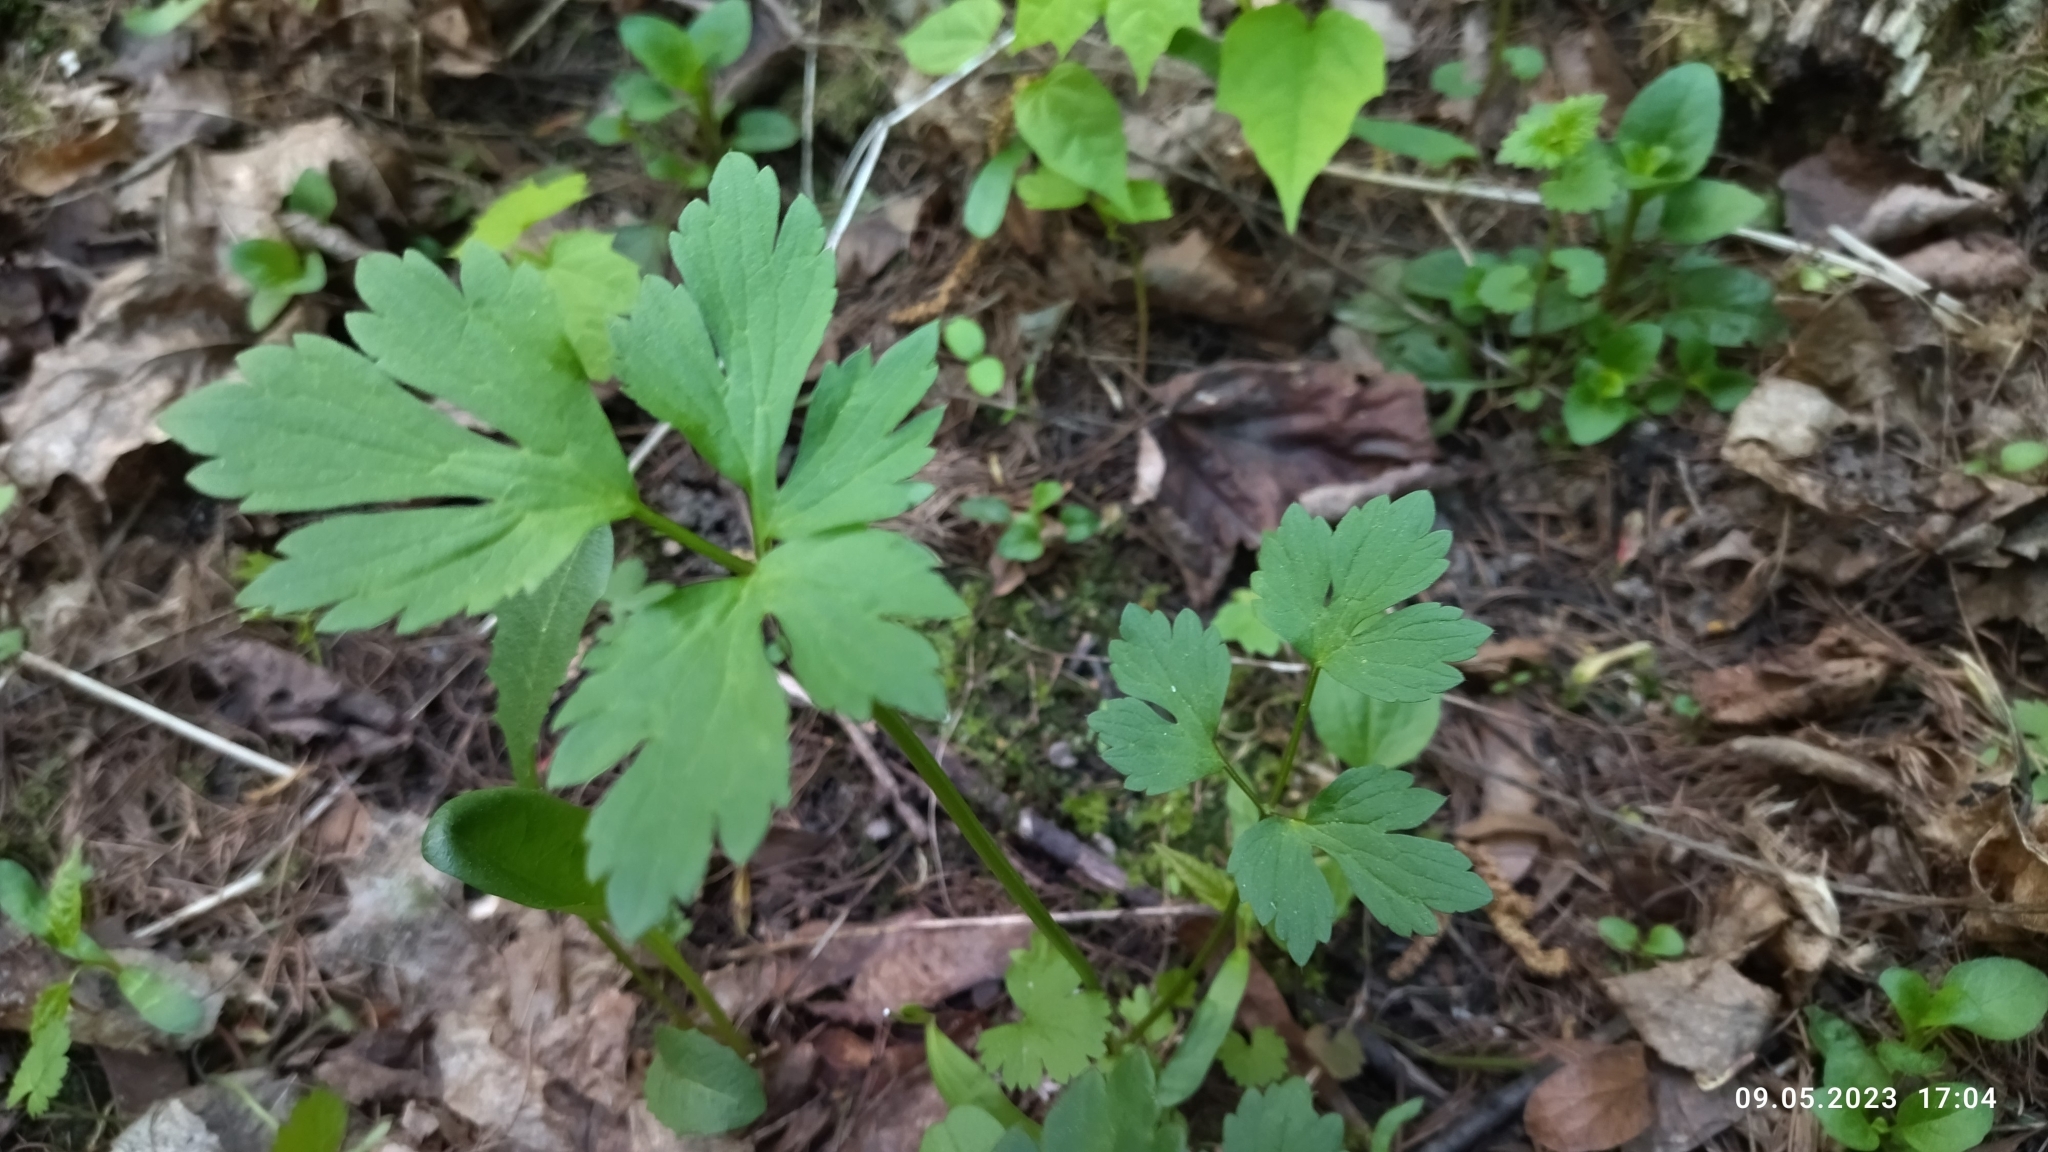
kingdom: Plantae
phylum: Tracheophyta
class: Magnoliopsida
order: Ranunculales
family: Ranunculaceae
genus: Ranunculus
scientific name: Ranunculus repens
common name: Creeping buttercup
